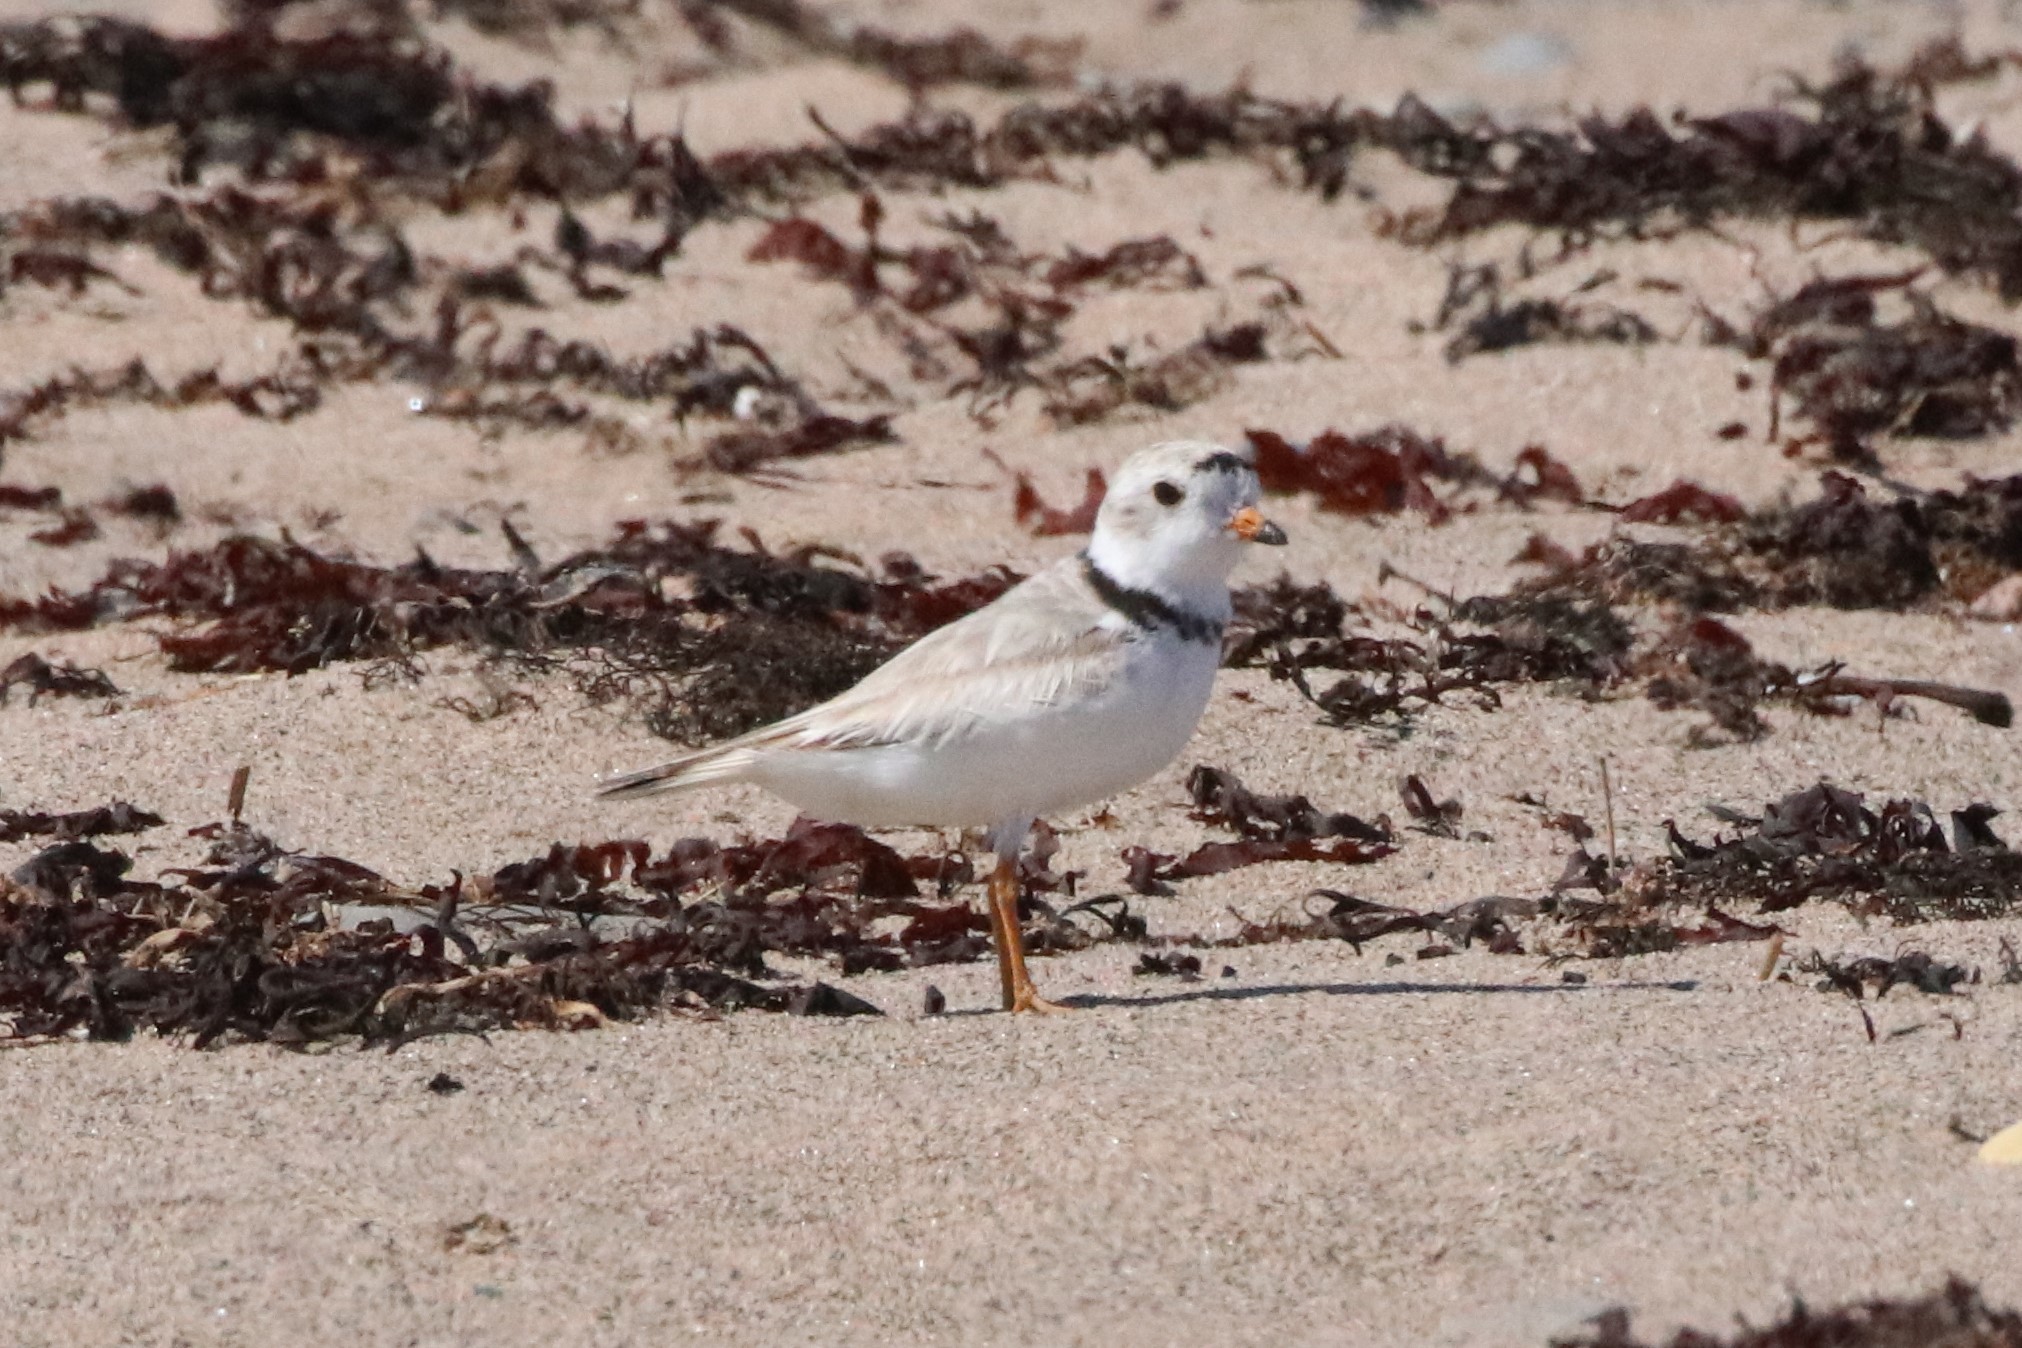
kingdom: Animalia
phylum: Chordata
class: Aves
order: Charadriiformes
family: Charadriidae
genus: Charadrius
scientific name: Charadrius melodus
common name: Piping plover
